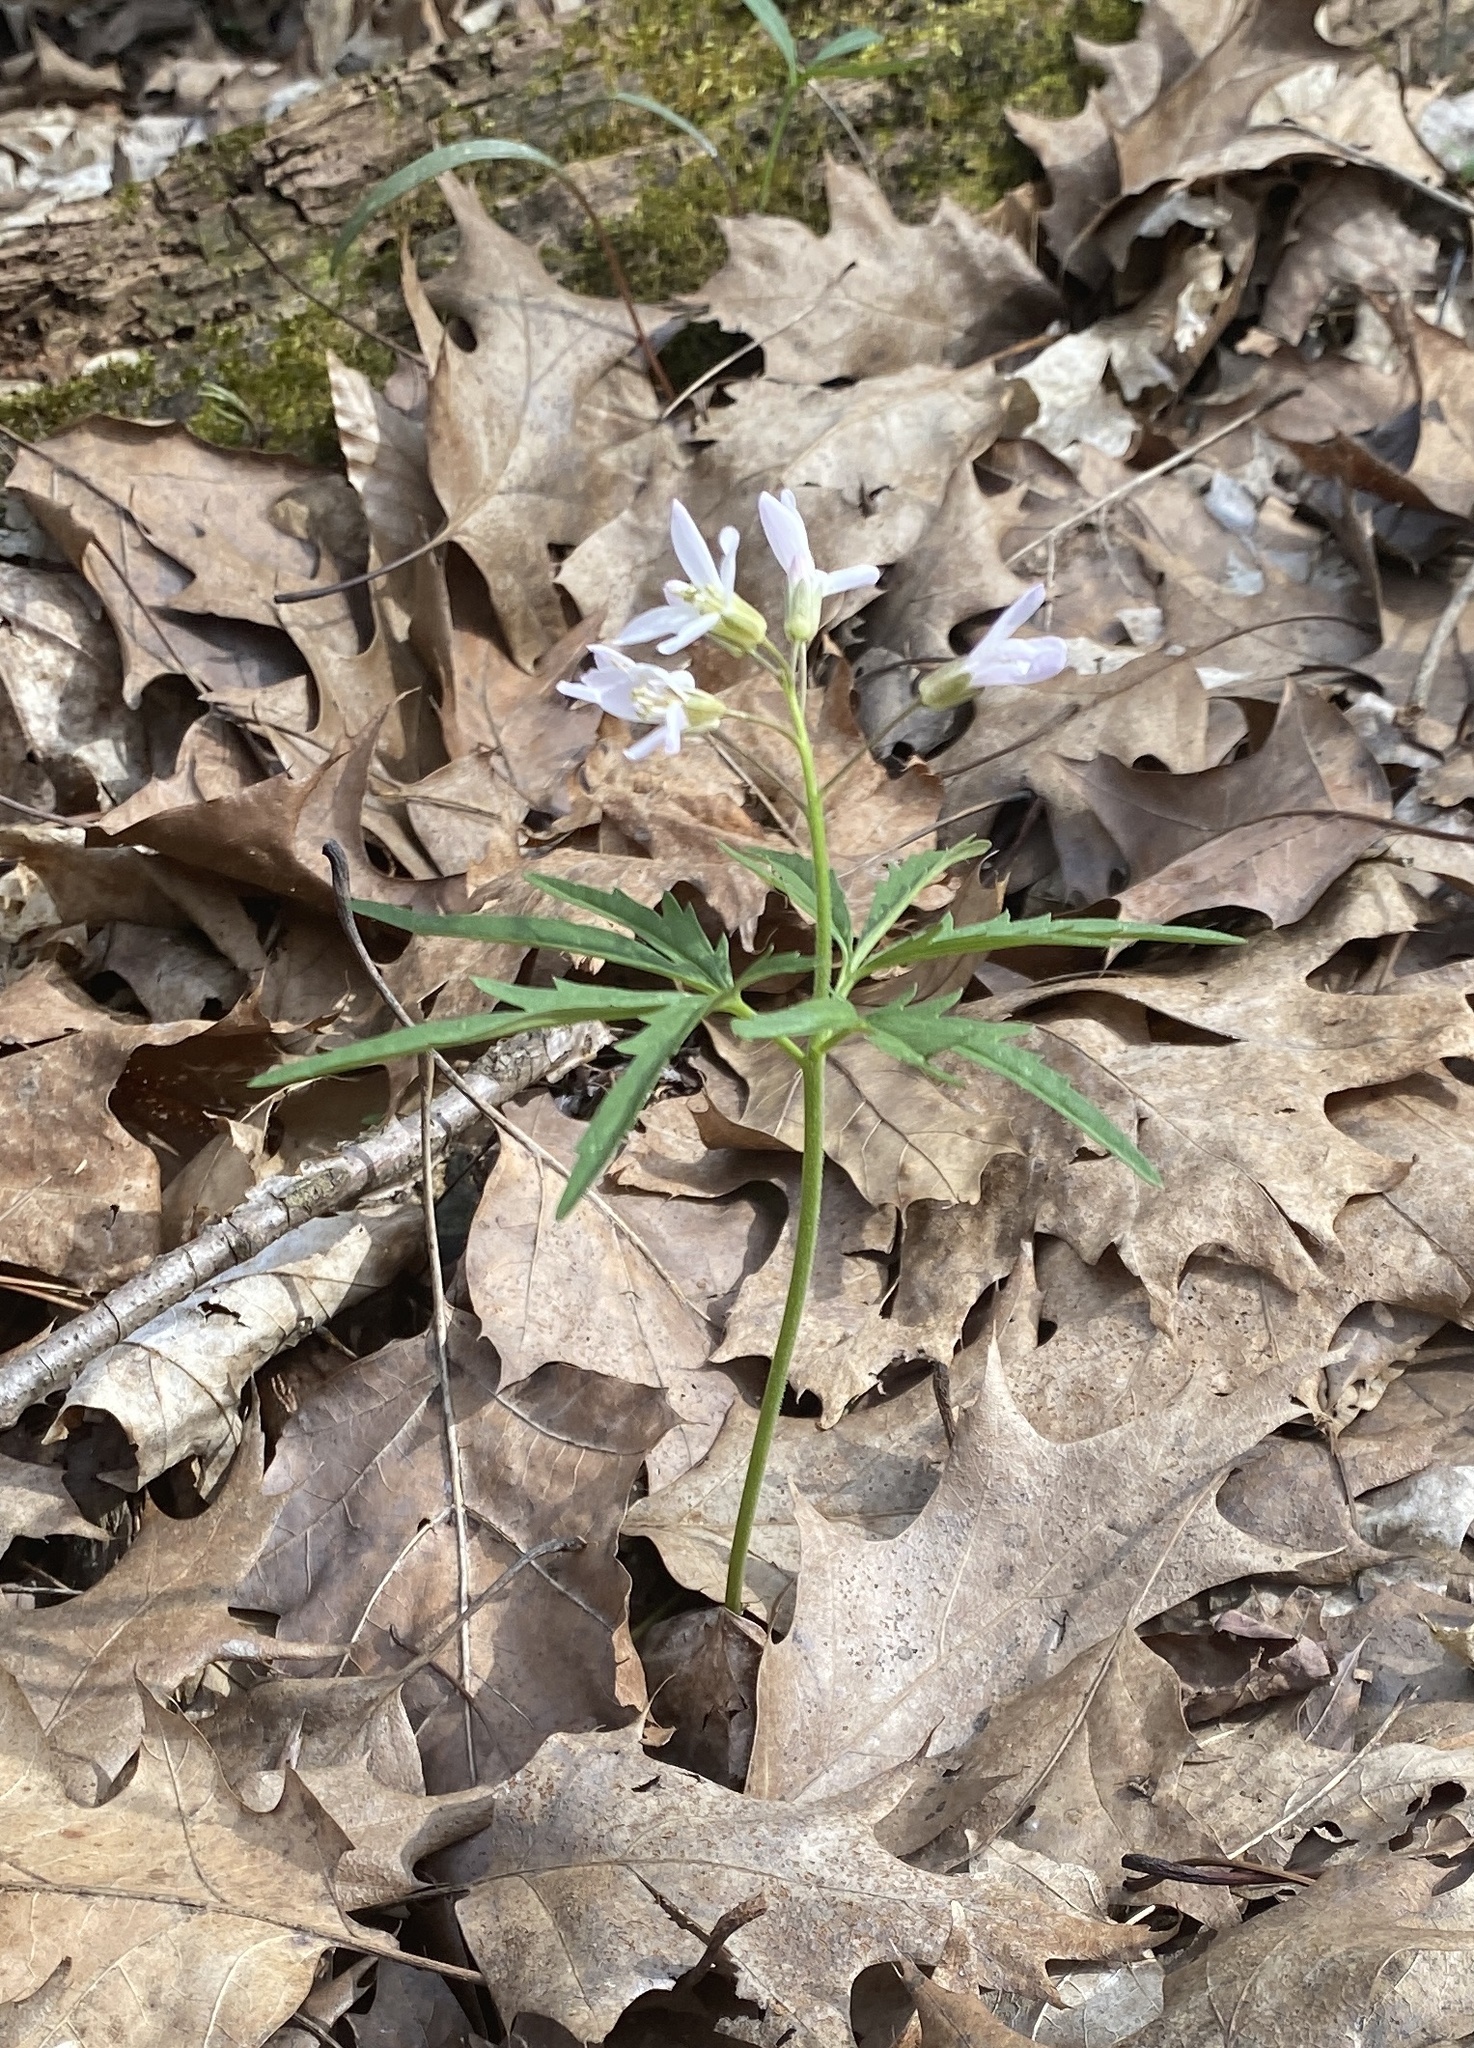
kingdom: Plantae
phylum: Tracheophyta
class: Magnoliopsida
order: Brassicales
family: Brassicaceae
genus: Cardamine
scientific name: Cardamine concatenata
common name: Cut-leaf toothcup
